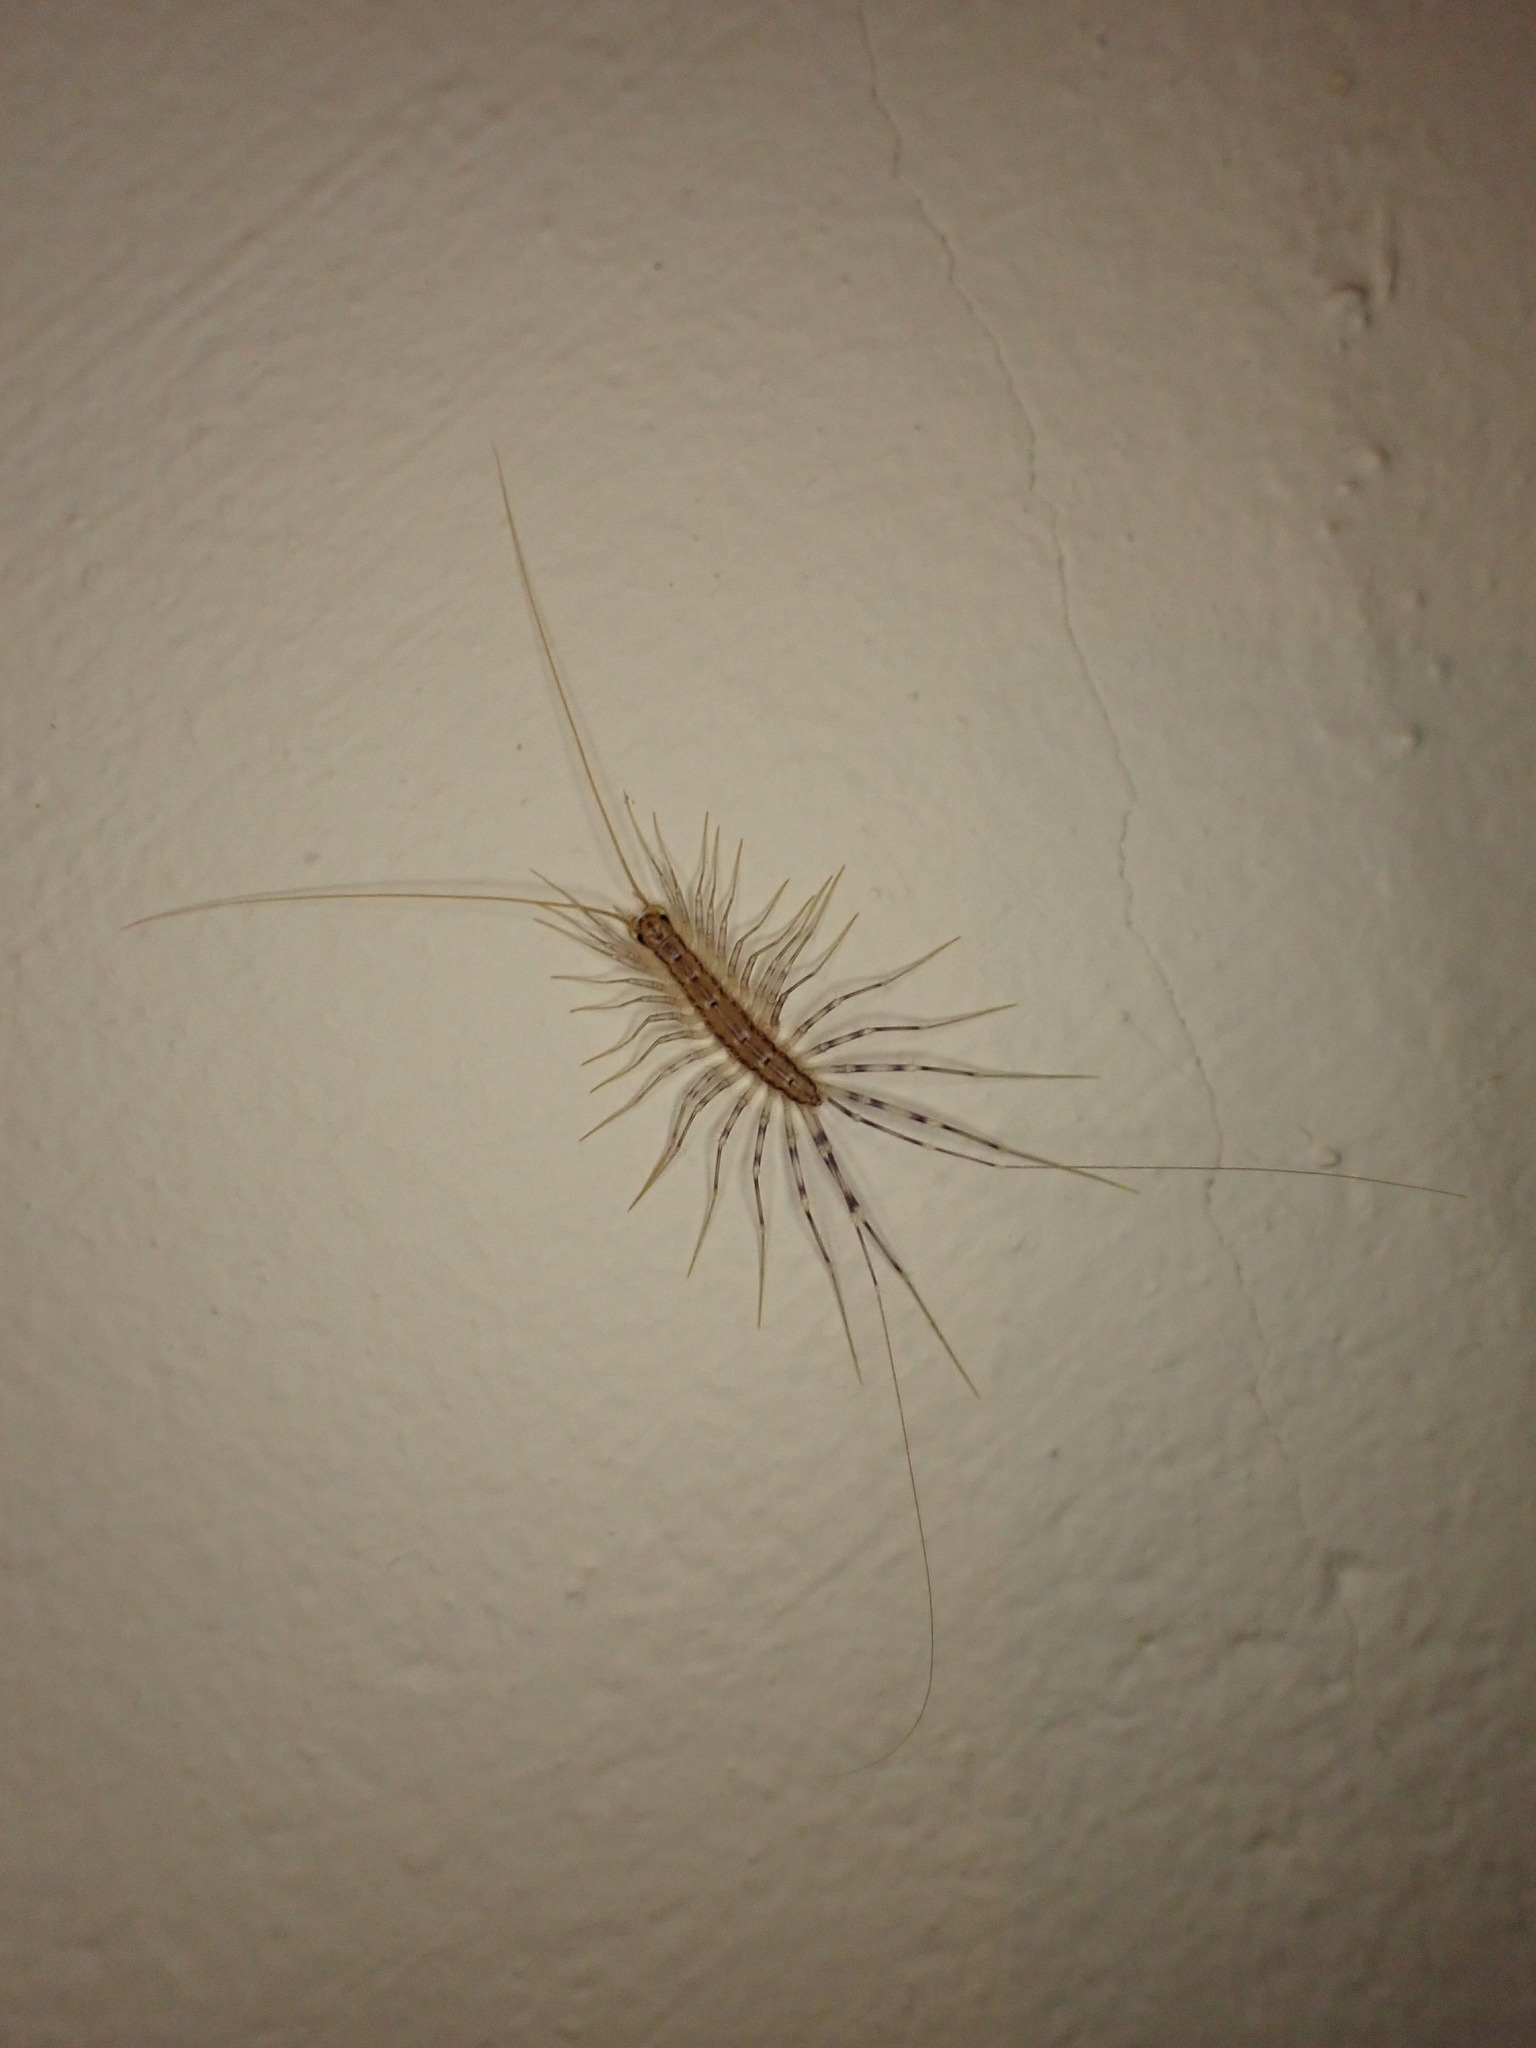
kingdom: Animalia
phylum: Arthropoda
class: Chilopoda
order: Scutigeromorpha
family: Scutigeridae
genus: Scutigera
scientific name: Scutigera coleoptrata
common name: House centipede
